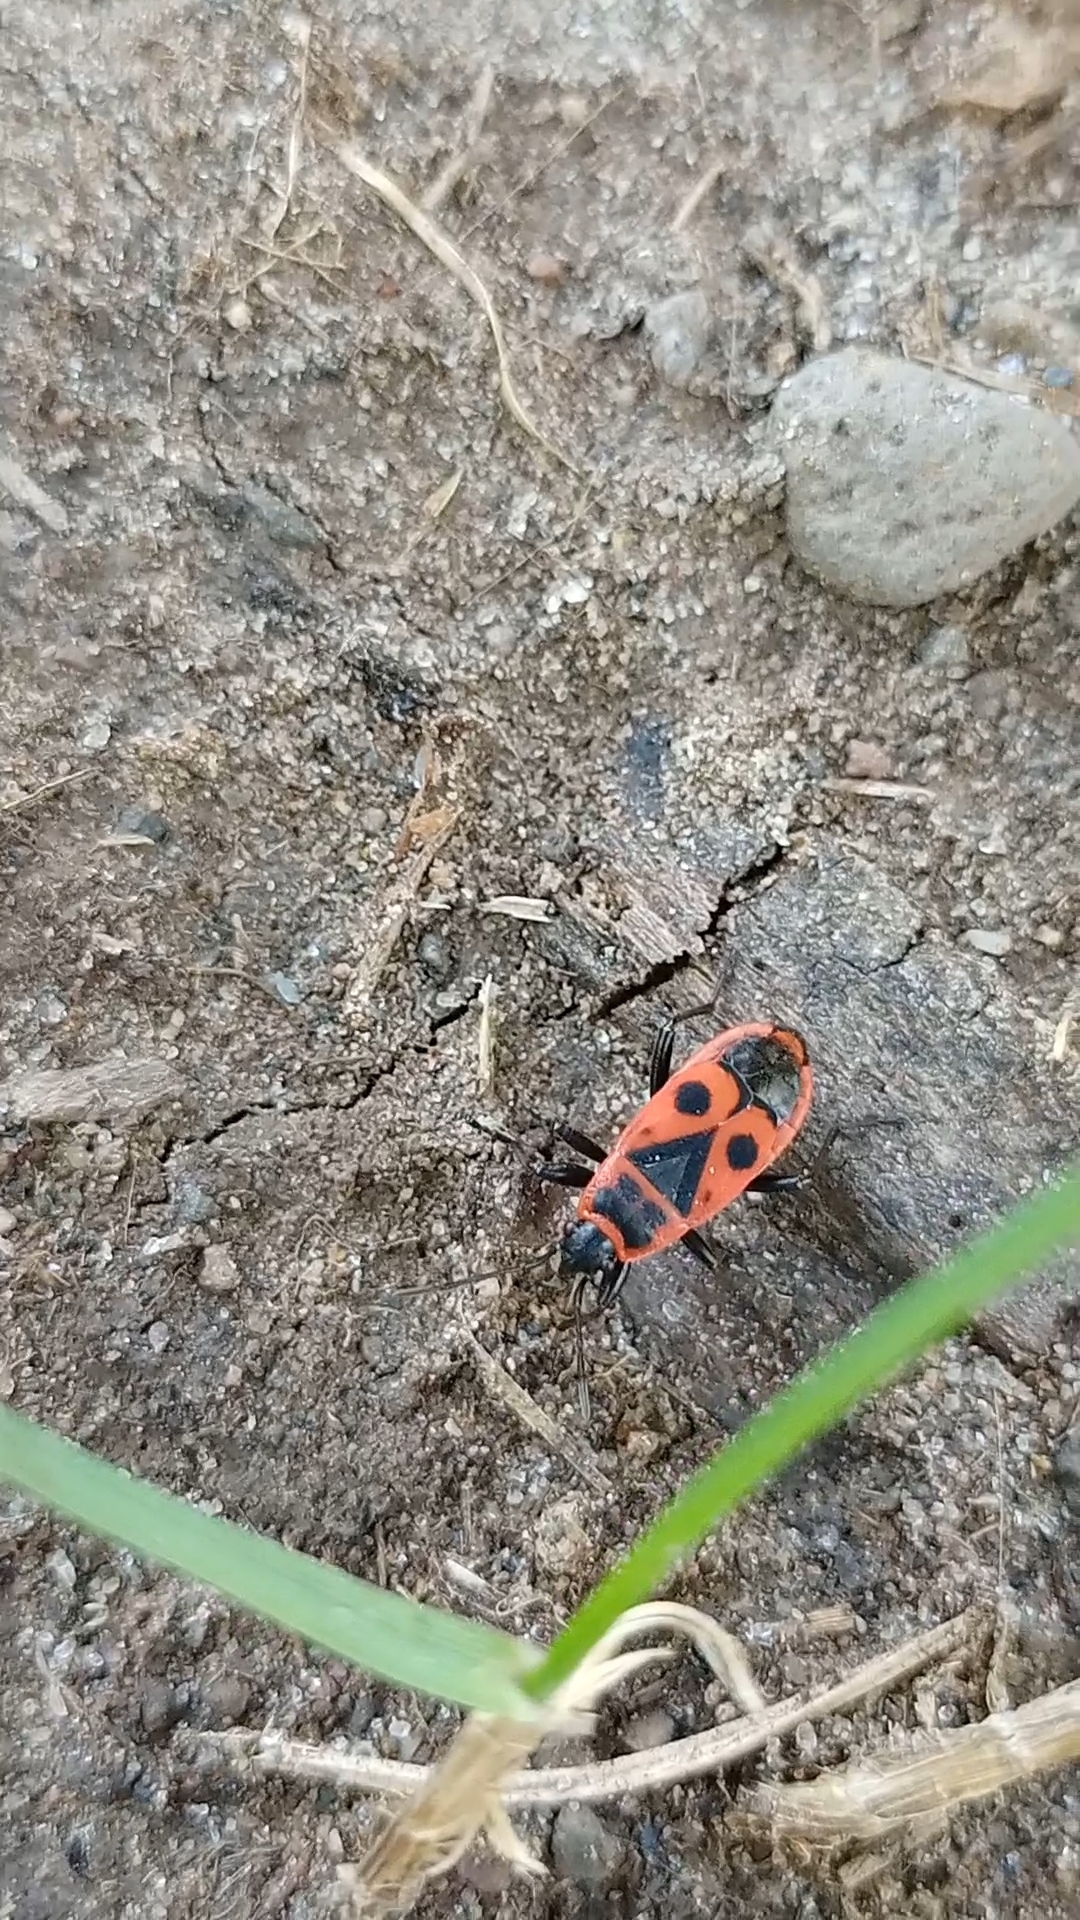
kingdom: Animalia
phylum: Arthropoda
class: Insecta
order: Hemiptera
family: Pyrrhocoridae
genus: Pyrrhocoris
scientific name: Pyrrhocoris apterus
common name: Firebug
